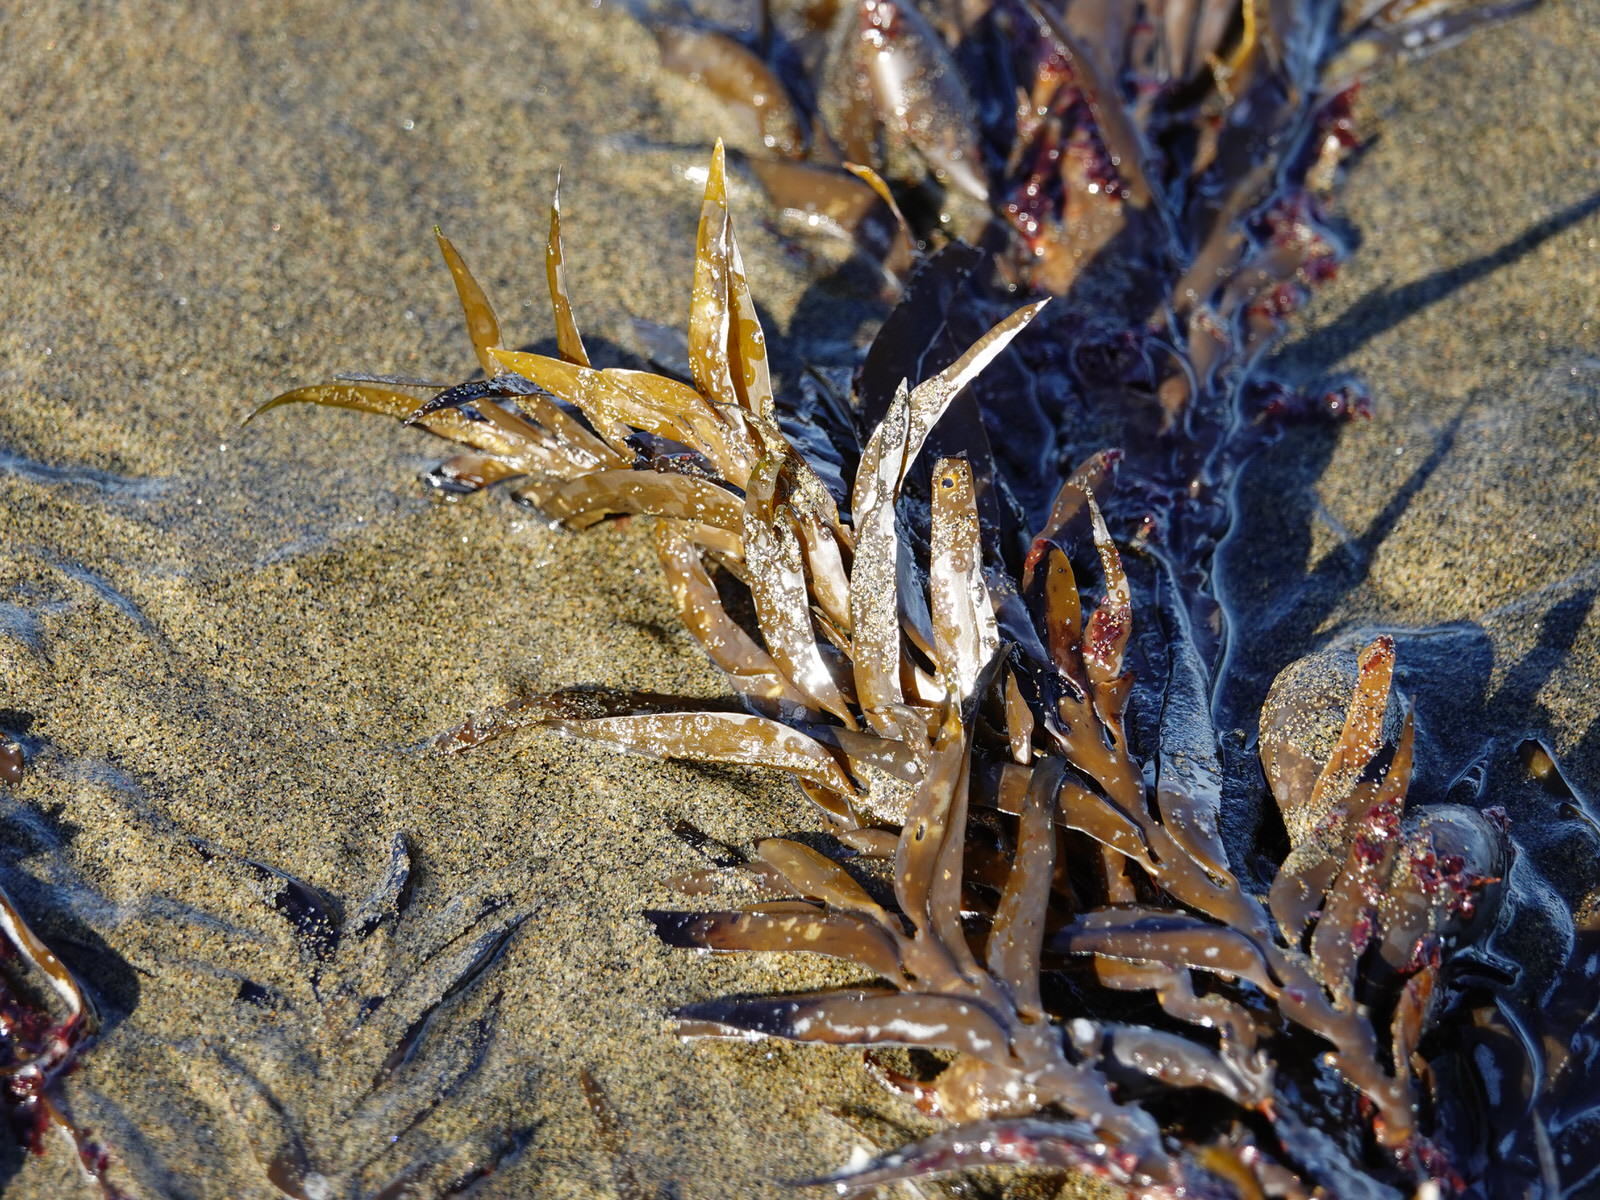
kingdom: Chromista
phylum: Ochrophyta
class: Phaeophyceae
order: Fucales
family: Sargassaceae
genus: Carpophyllum
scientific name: Carpophyllum maschalocarpum
